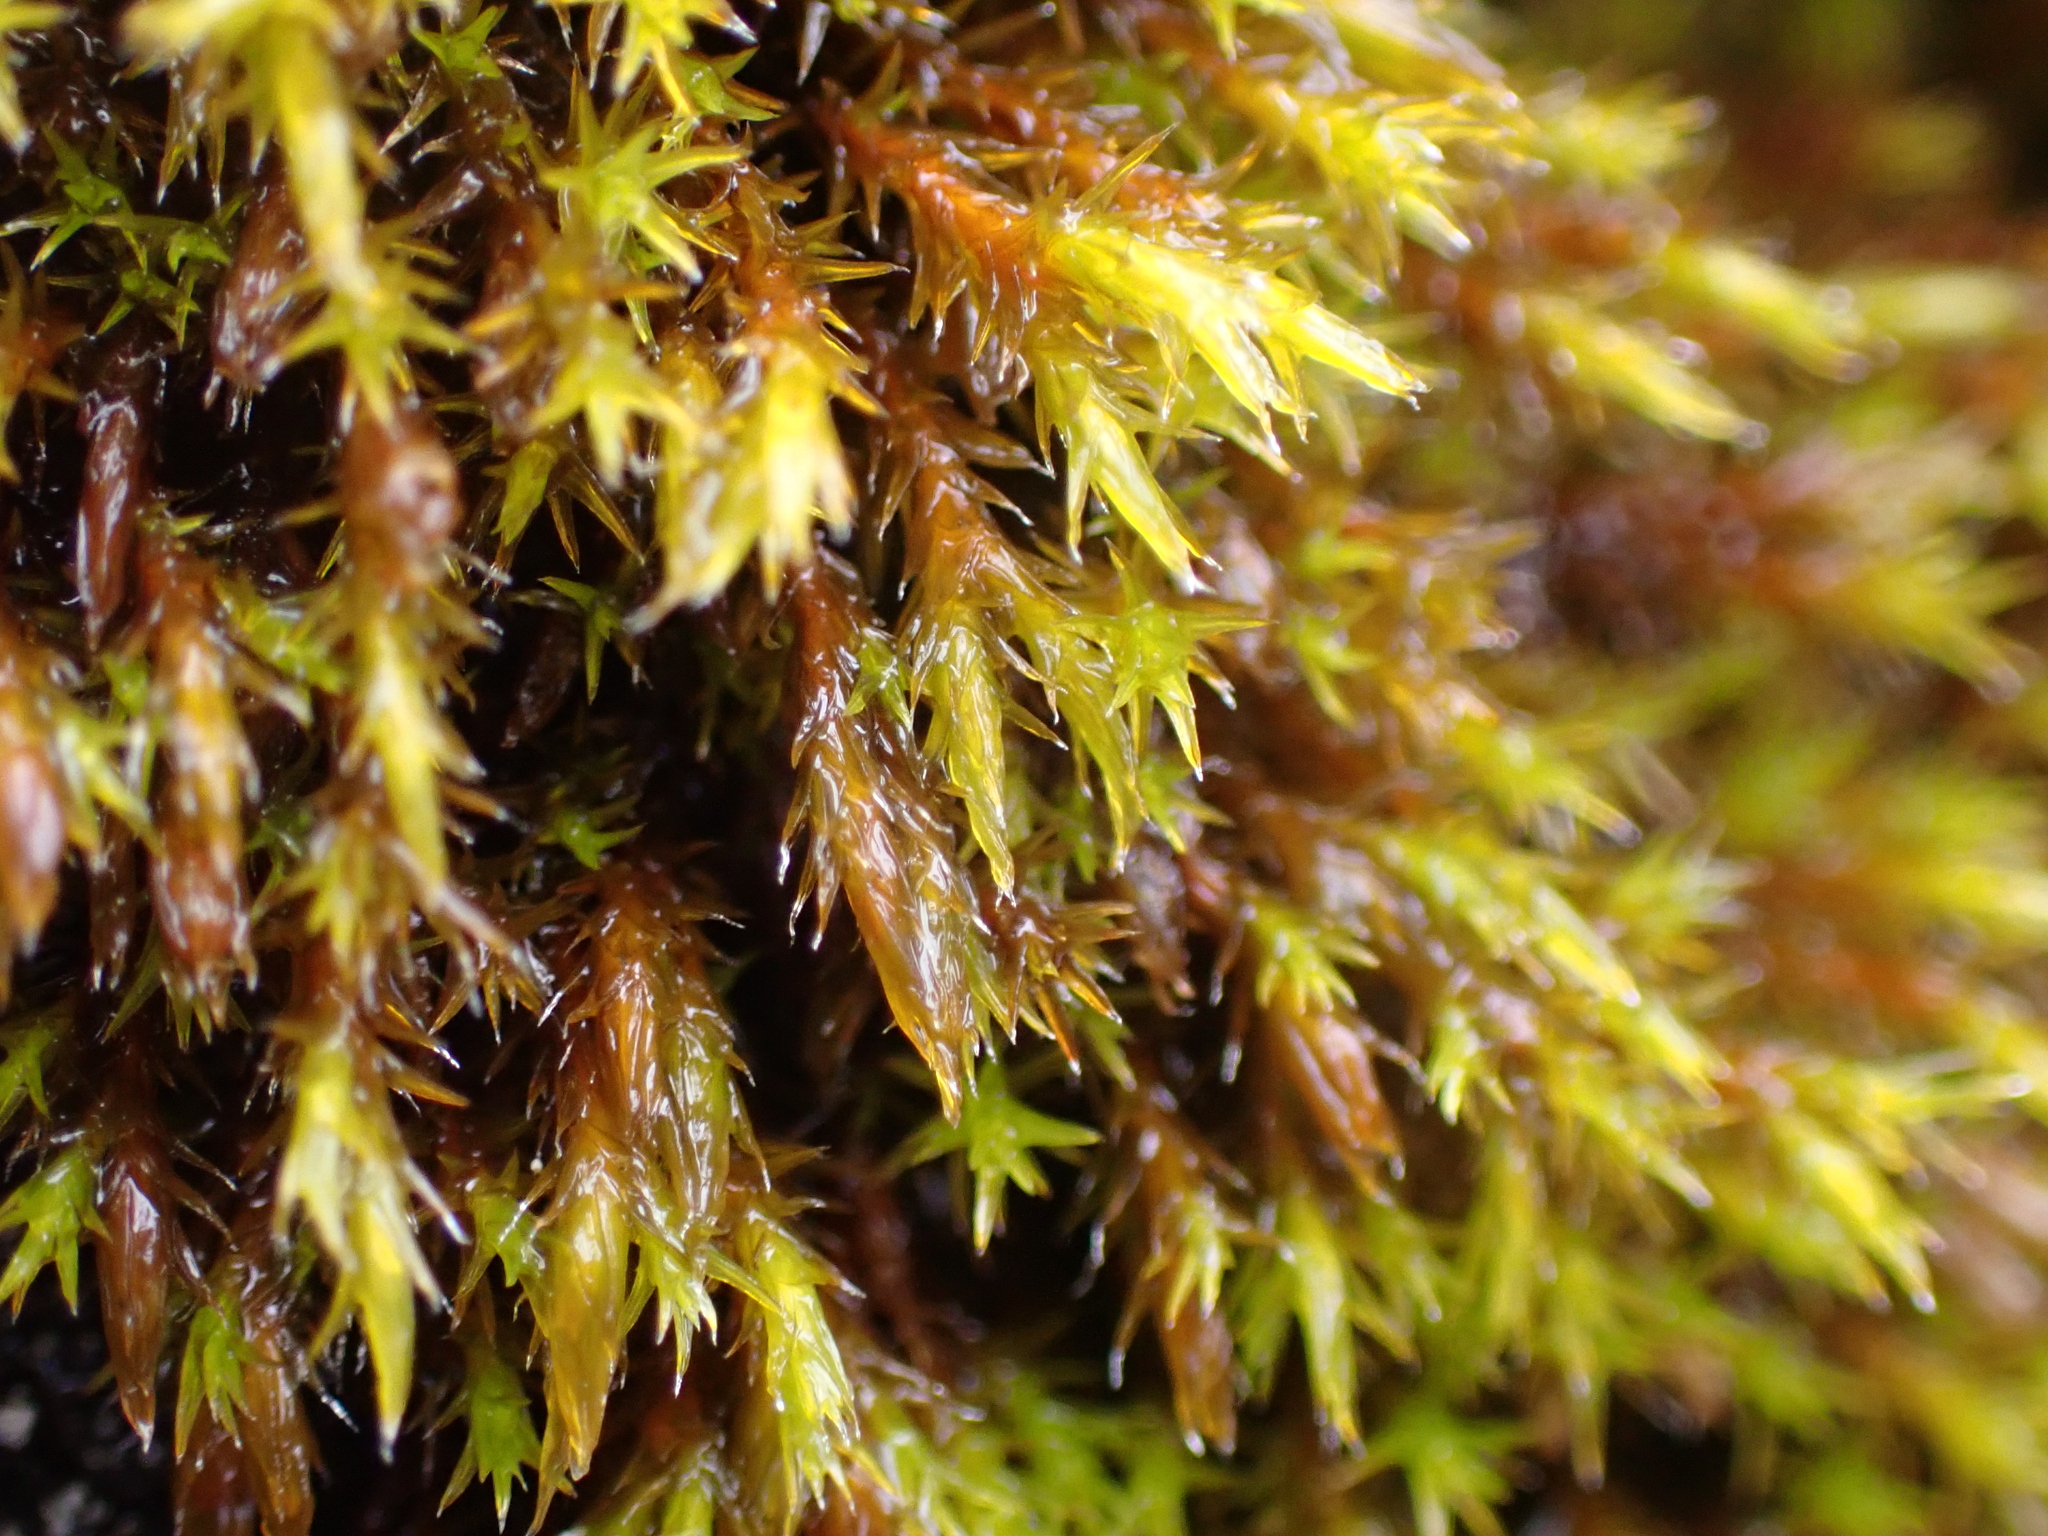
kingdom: Plantae
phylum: Bryophyta
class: Bryopsida
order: Grimmiales
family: Grimmiaceae
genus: Schistidium
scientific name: Schistidium apocarpum
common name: Radiate bloom moss
